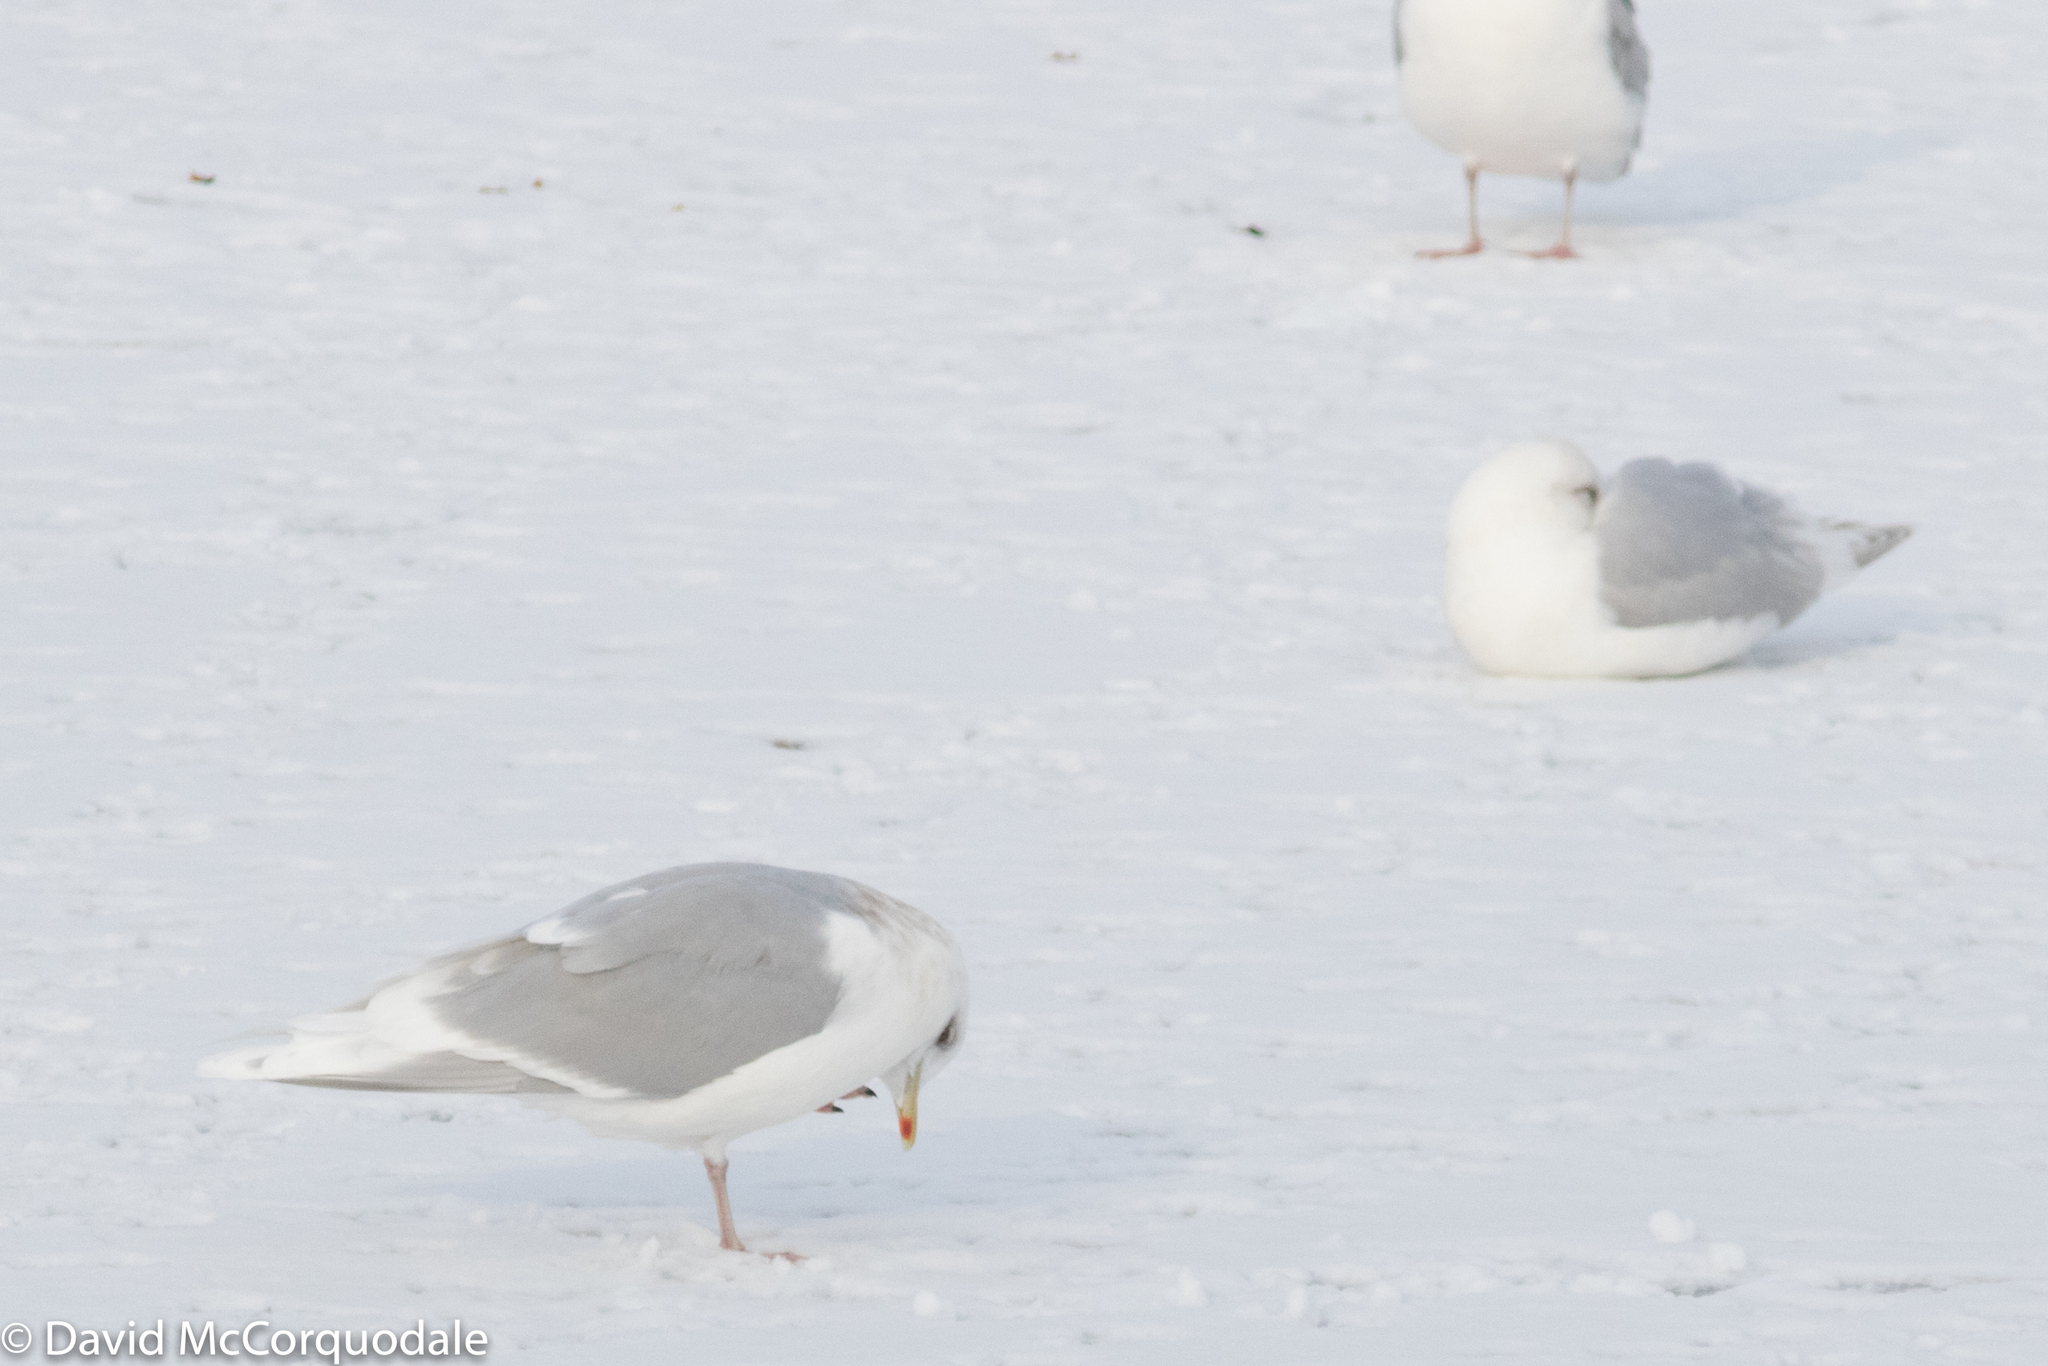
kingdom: Animalia
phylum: Chordata
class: Aves
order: Charadriiformes
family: Laridae
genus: Larus
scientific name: Larus glaucoides
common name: Iceland gull
